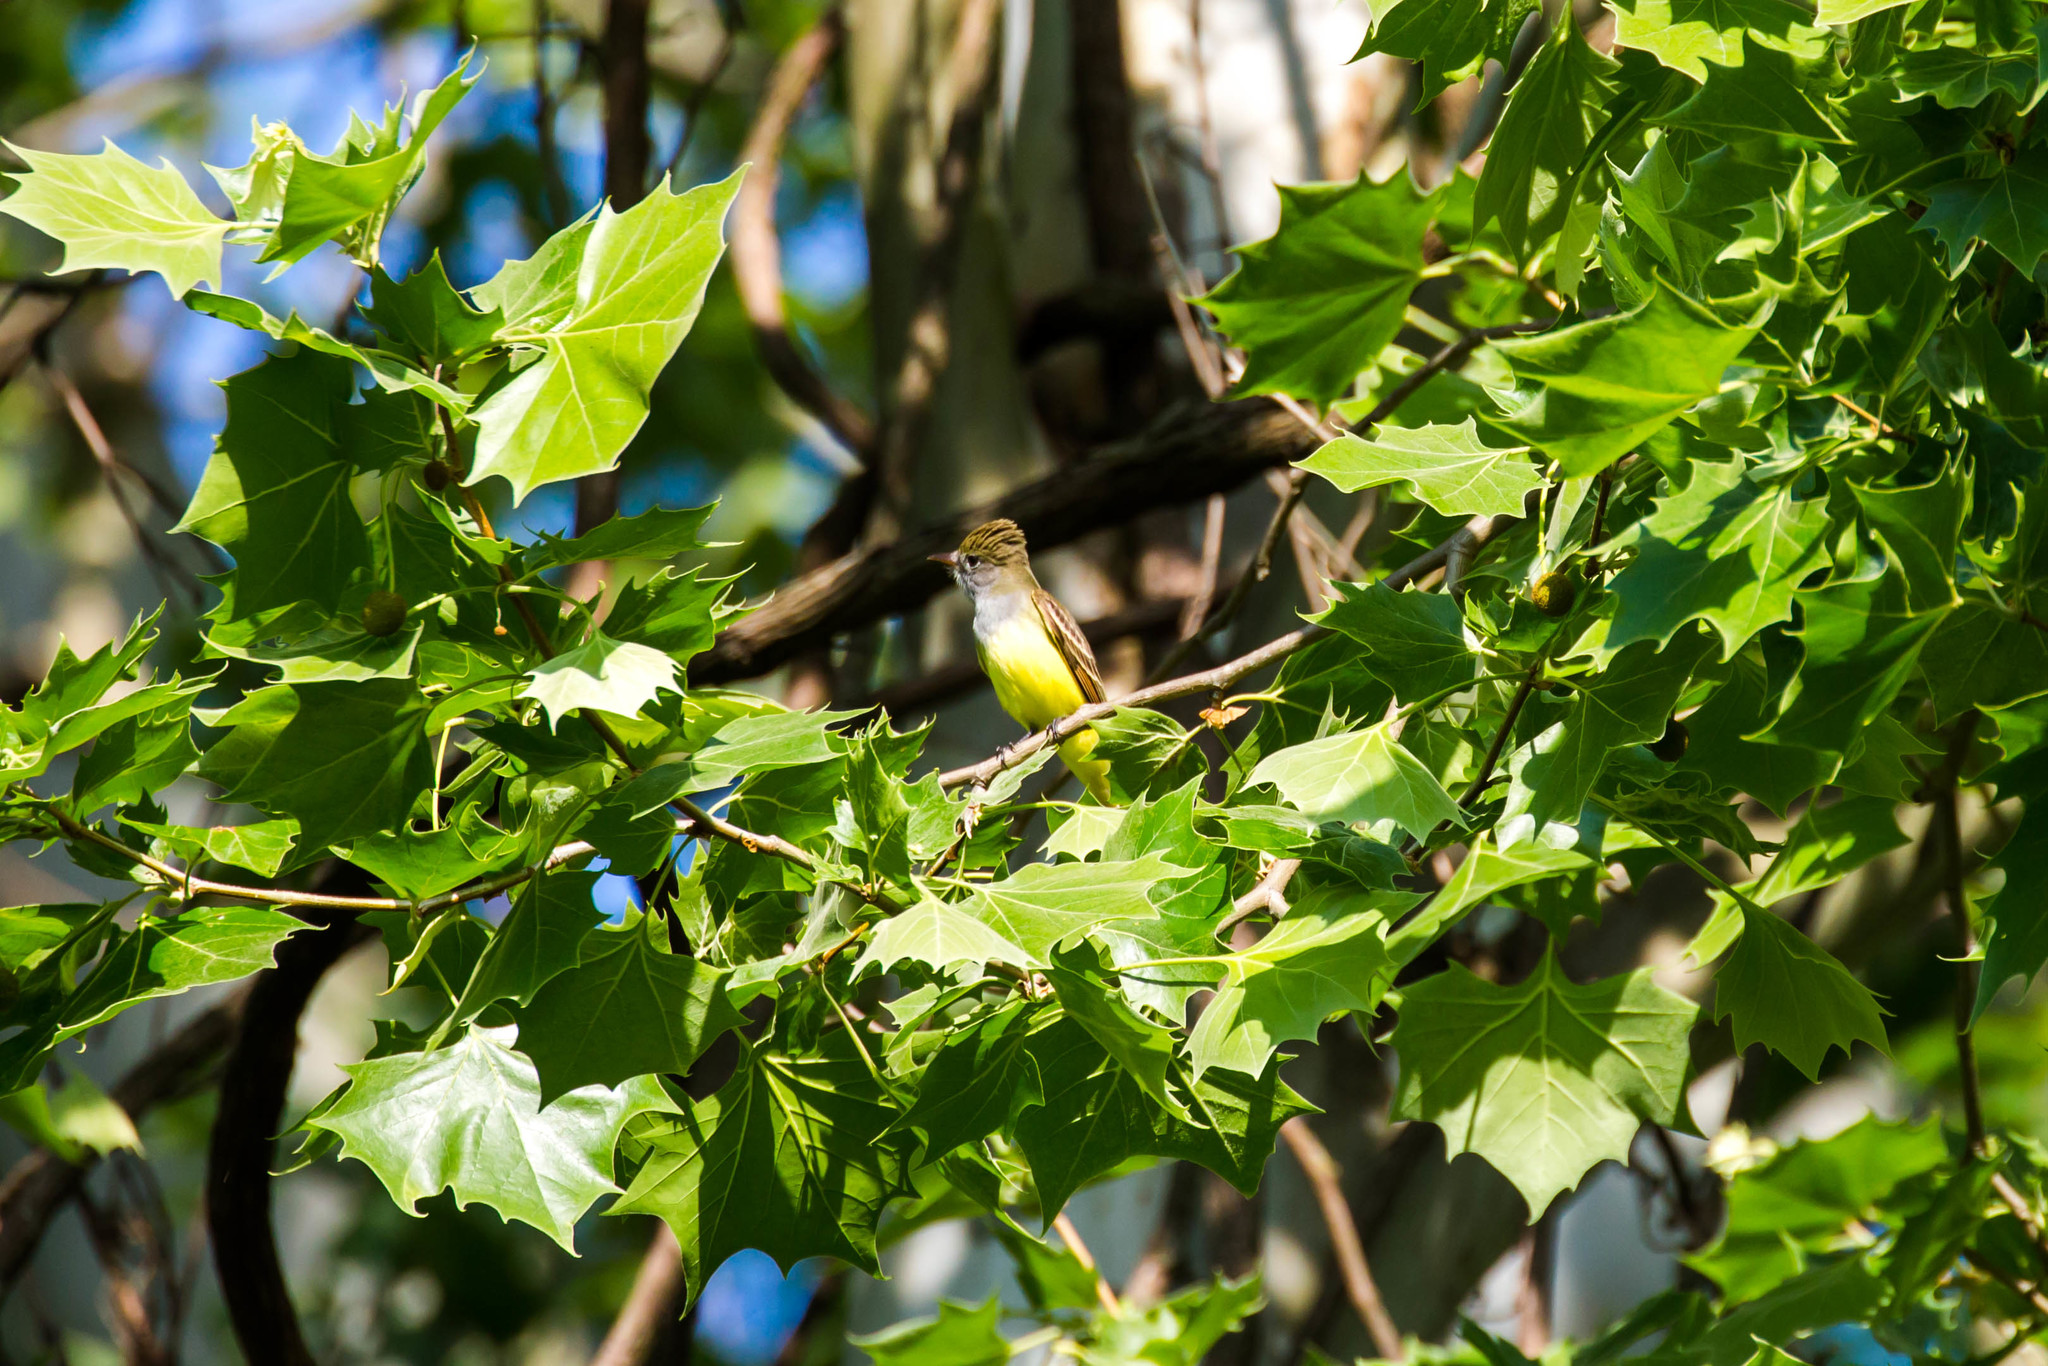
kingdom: Animalia
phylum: Chordata
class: Aves
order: Passeriformes
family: Tyrannidae
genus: Myiarchus
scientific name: Myiarchus crinitus
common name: Great crested flycatcher
